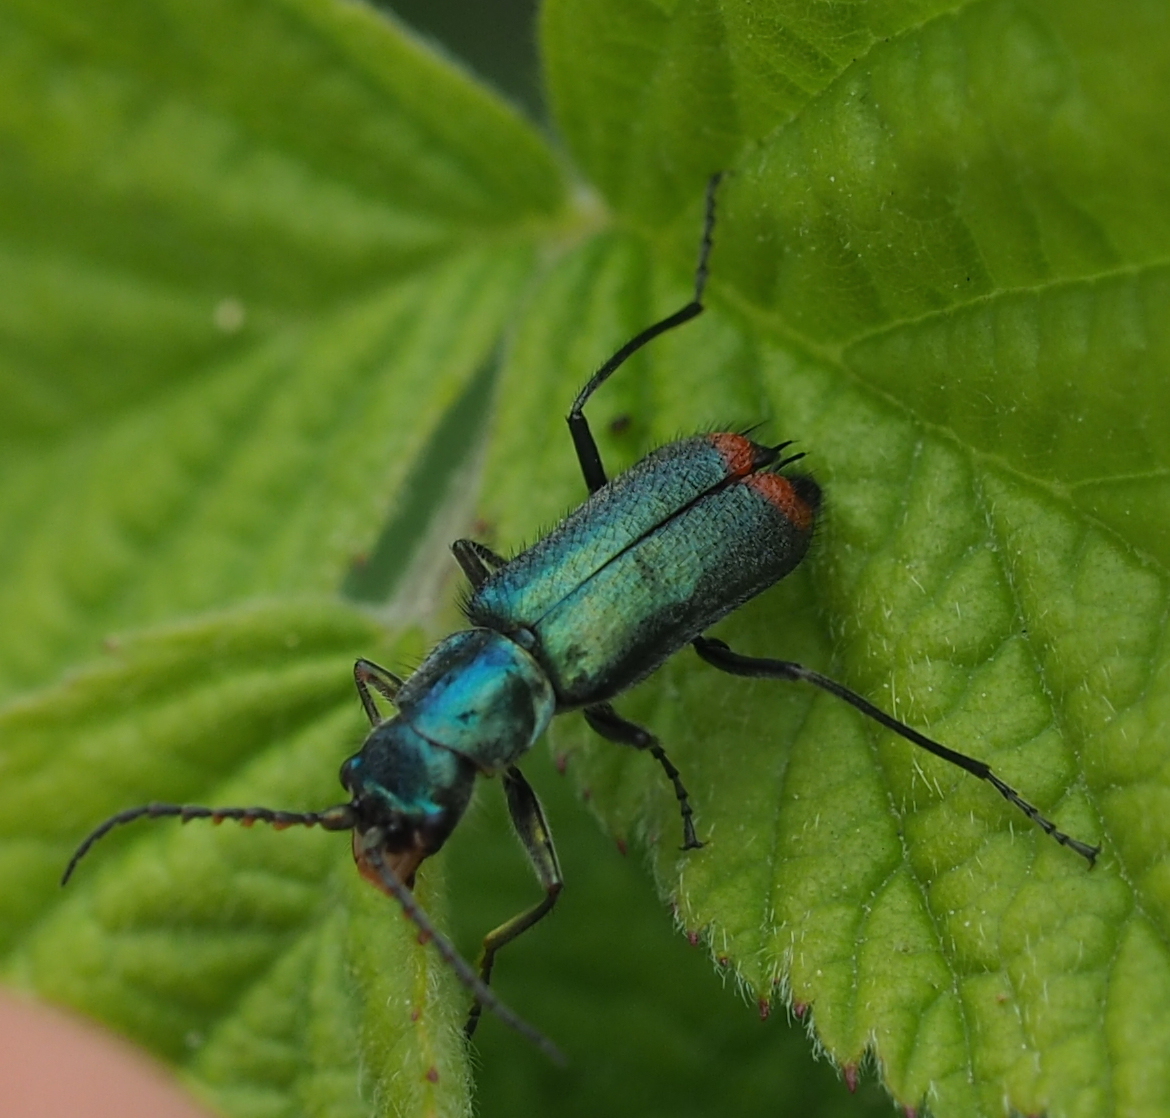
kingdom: Animalia
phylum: Arthropoda
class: Insecta
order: Coleoptera
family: Malachiidae
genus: Clanoptilus
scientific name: Clanoptilus geniculatus
